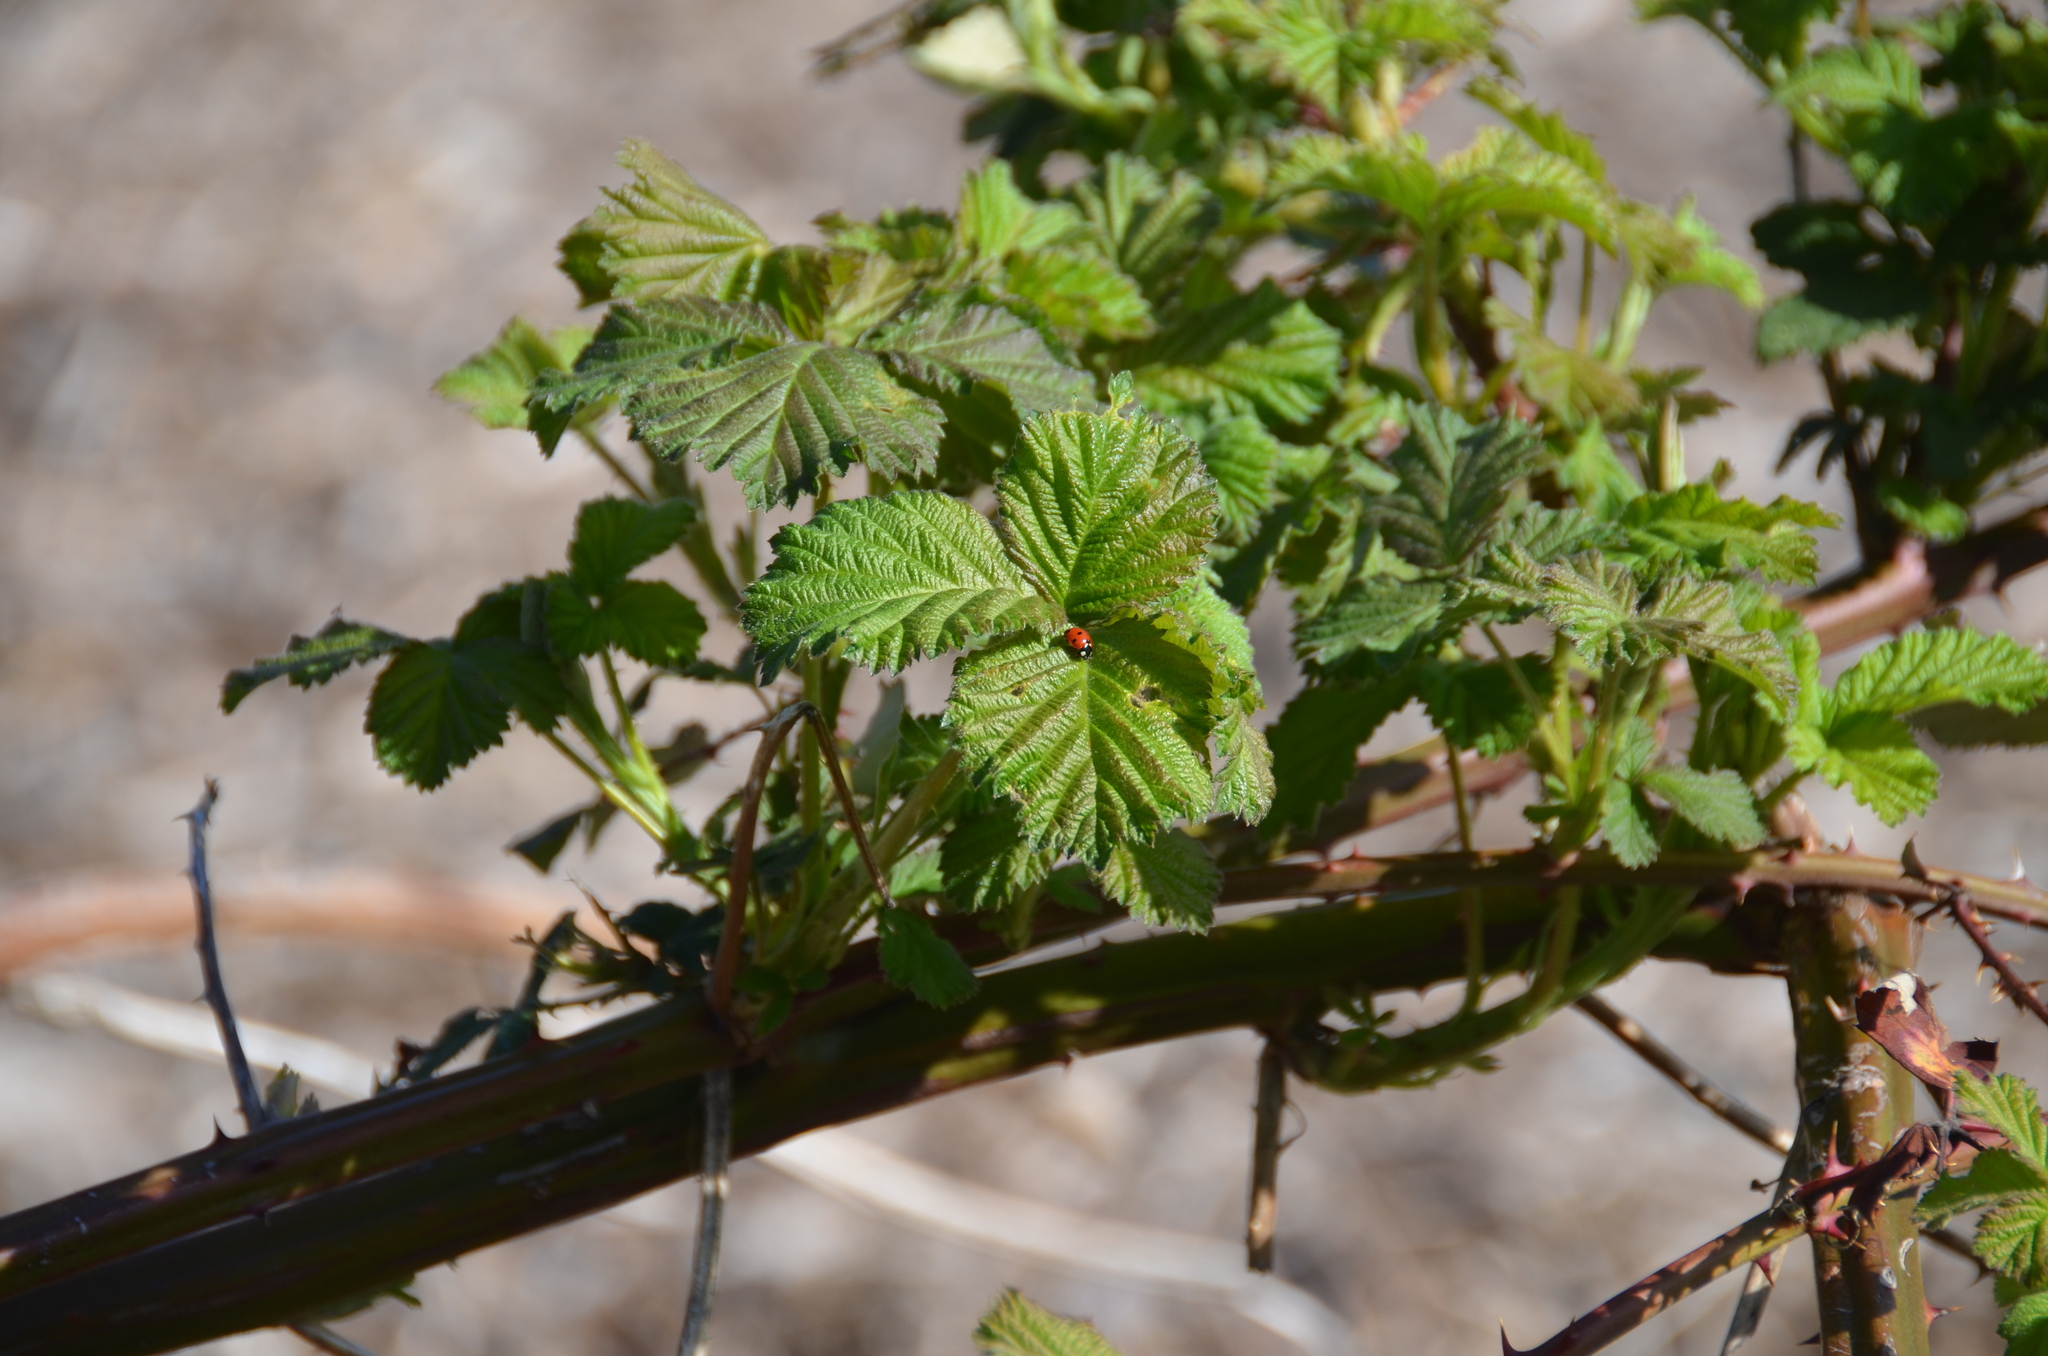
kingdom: Animalia
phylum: Arthropoda
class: Insecta
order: Coleoptera
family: Coccinellidae
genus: Coccinella
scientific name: Coccinella septempunctata
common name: Sevenspotted lady beetle
